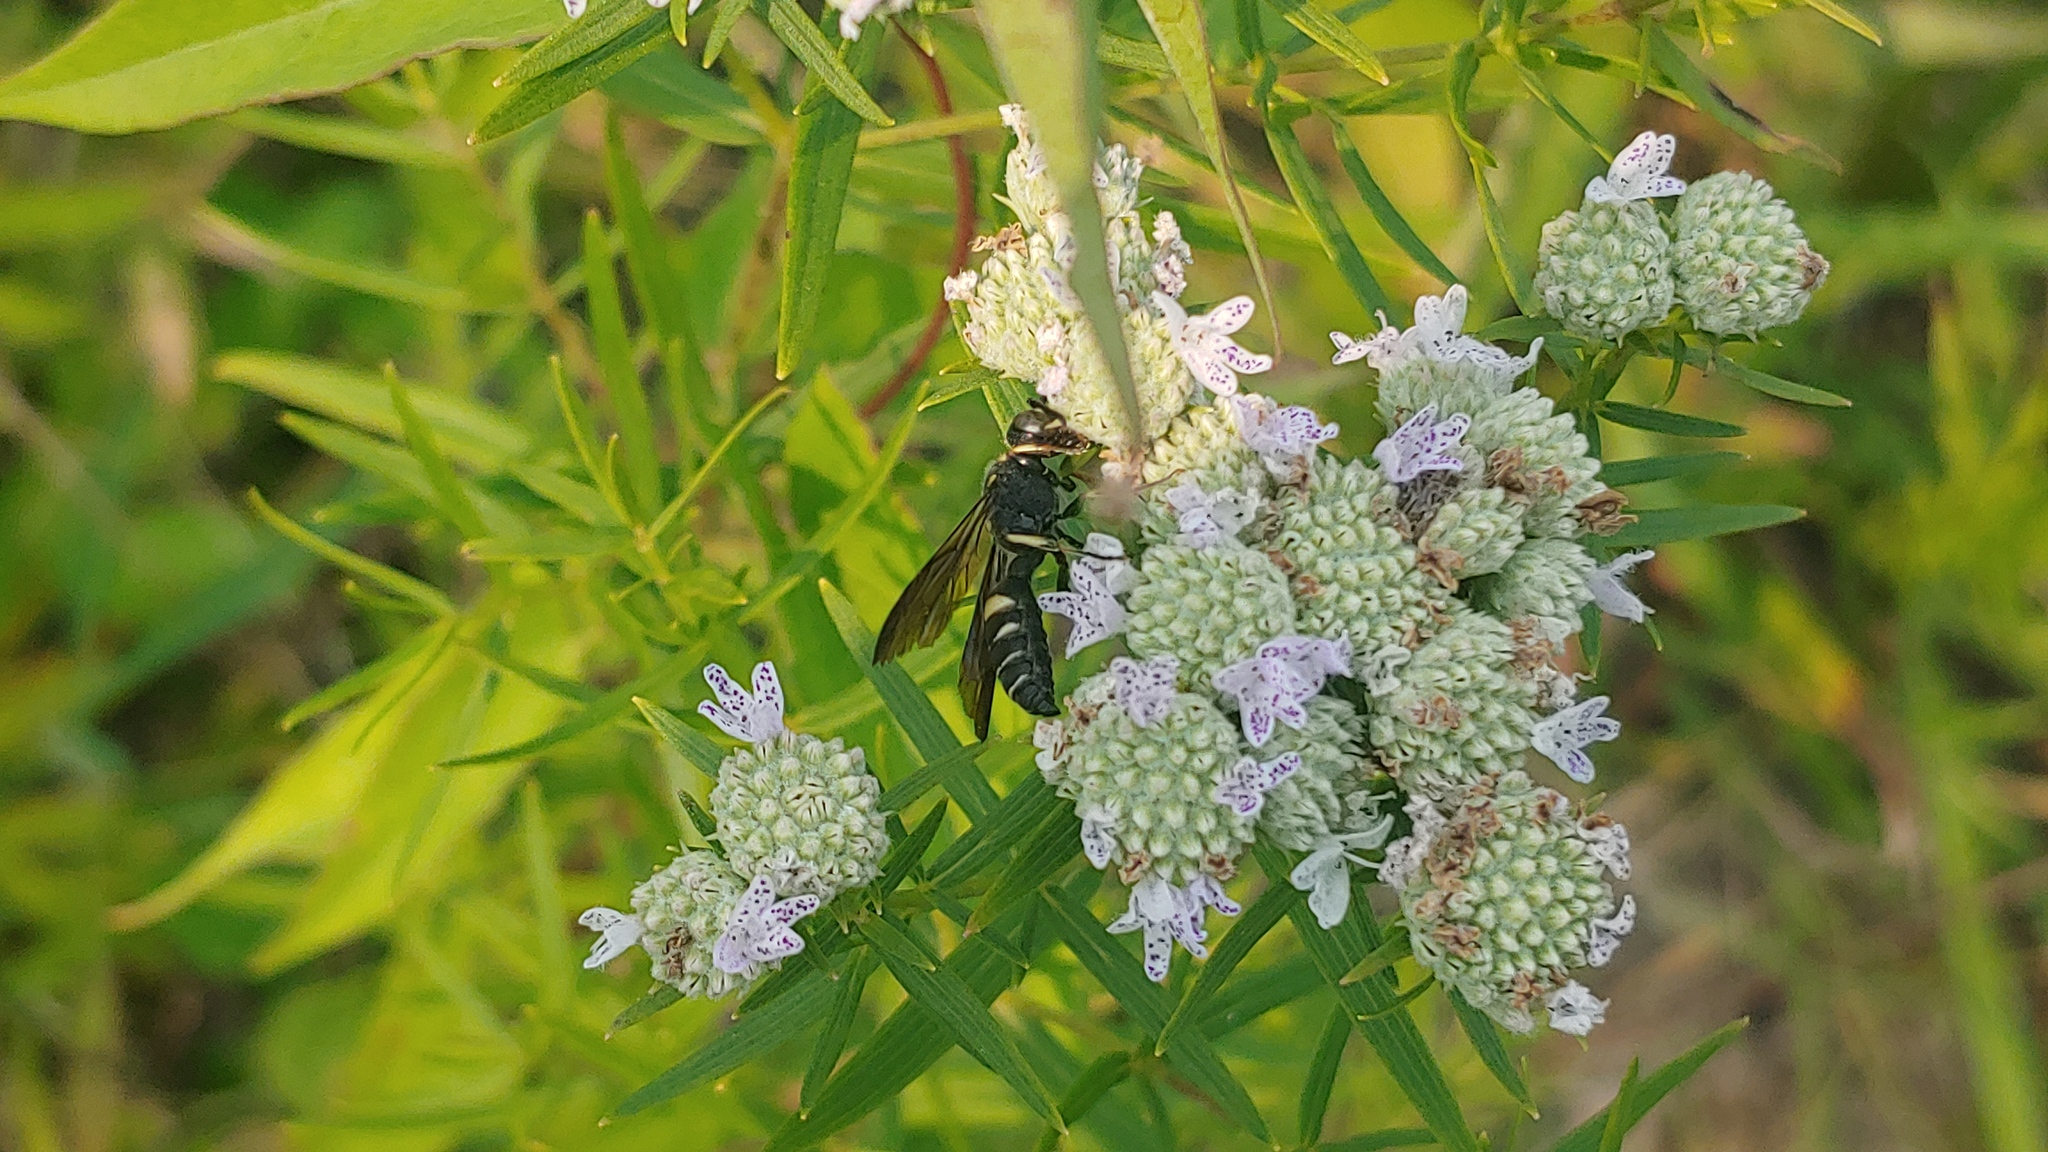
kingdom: Animalia
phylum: Arthropoda
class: Insecta
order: Hymenoptera
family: Crabronidae
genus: Cerceris
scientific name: Cerceris fumipennis
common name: Smokey-winged beetle bandit wasp
